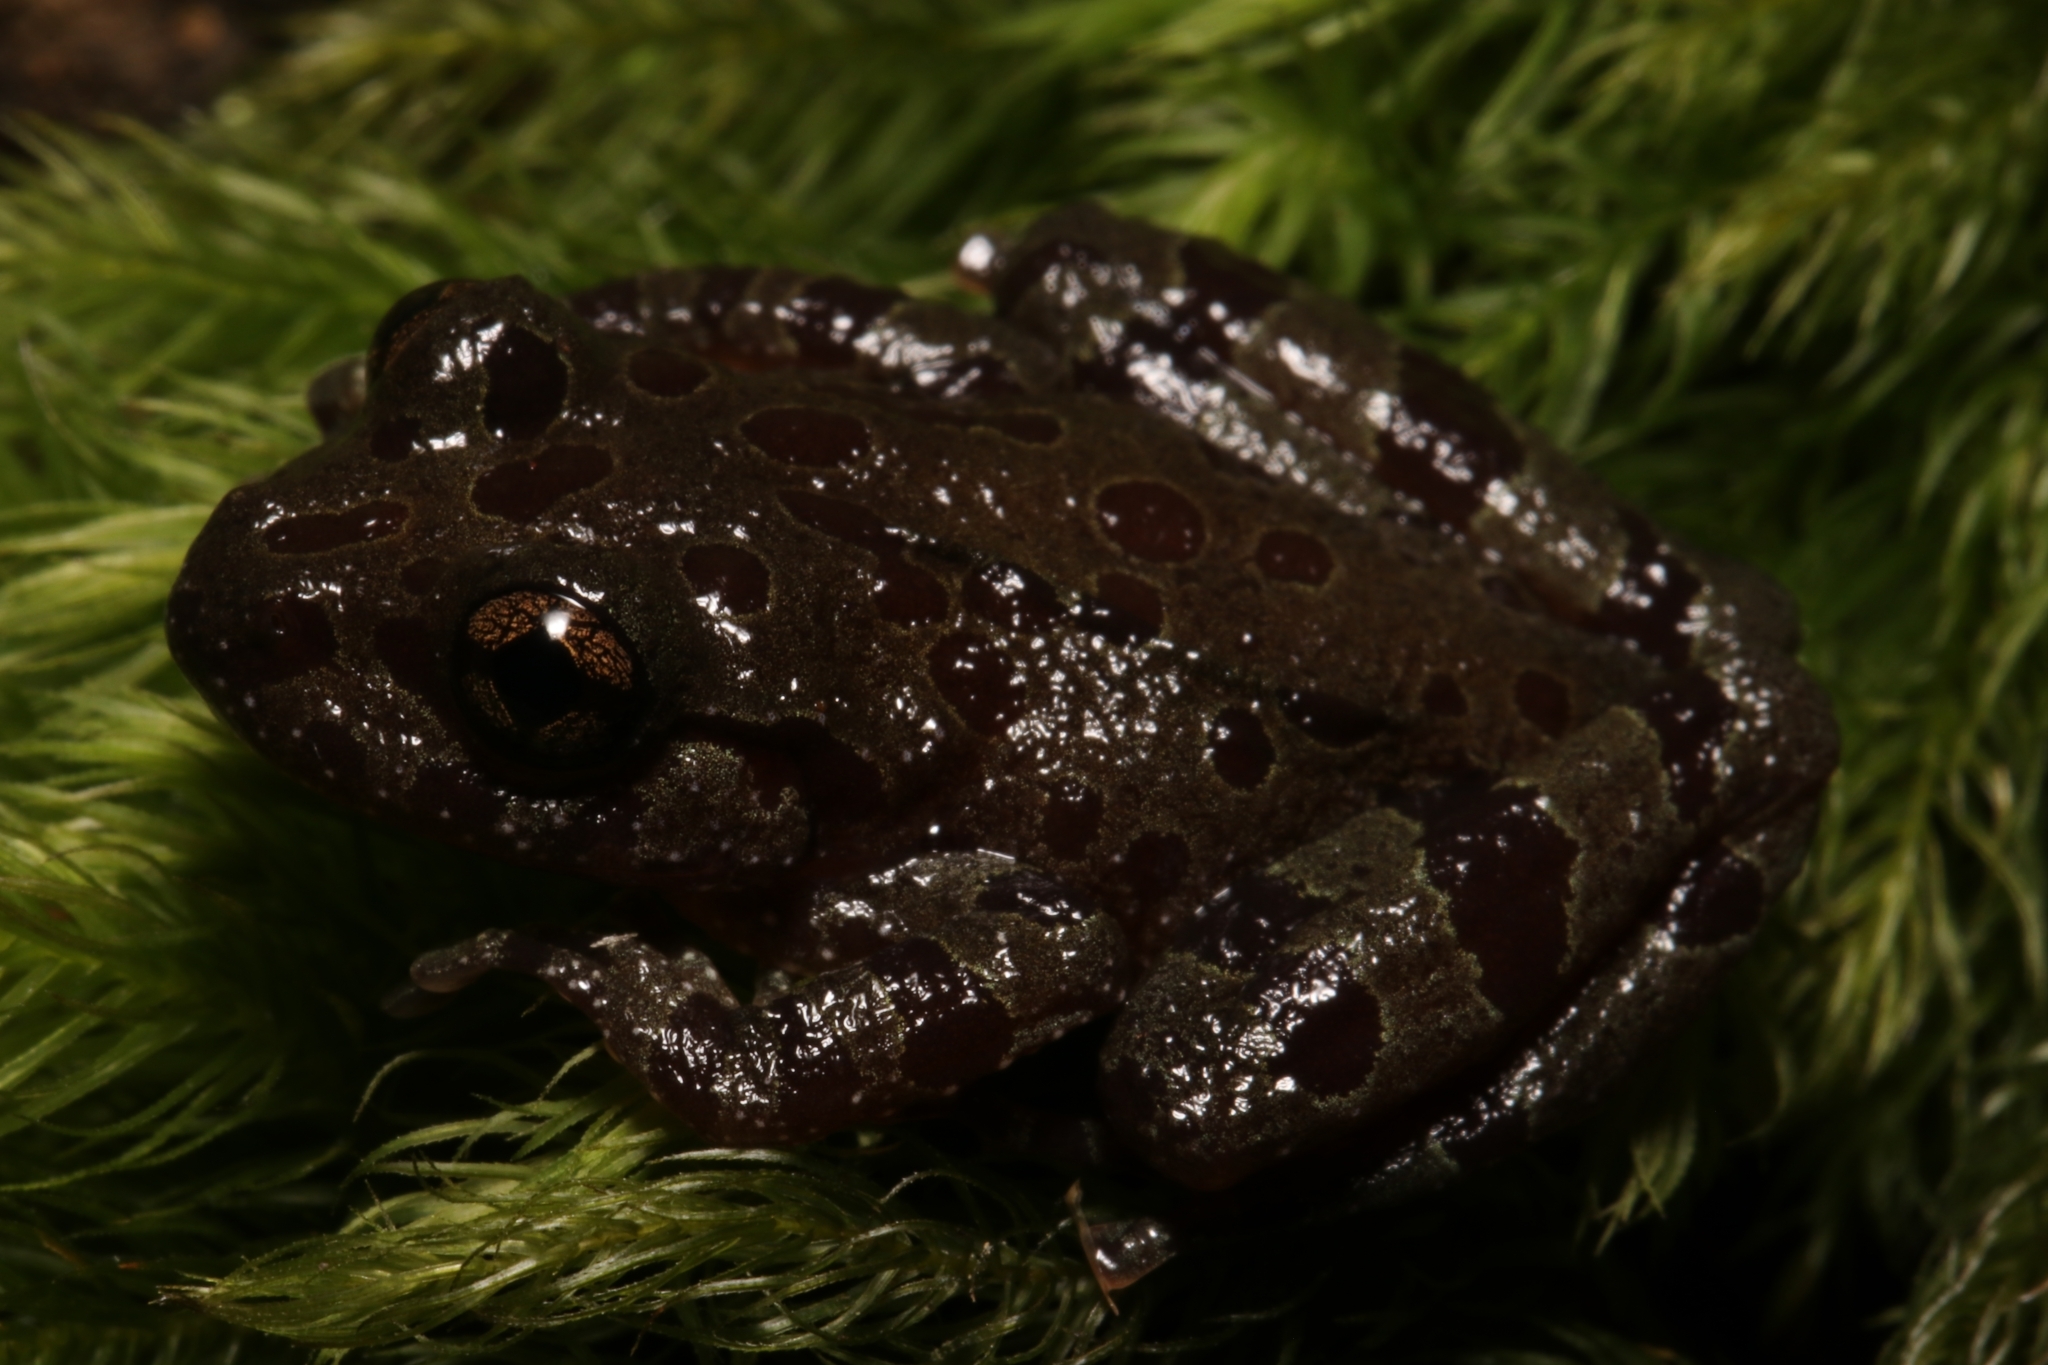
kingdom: Animalia
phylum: Chordata
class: Amphibia
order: Anura
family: Heleophrynidae
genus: Heleophryne
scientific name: Heleophryne orientalis
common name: East cape ghost frog
